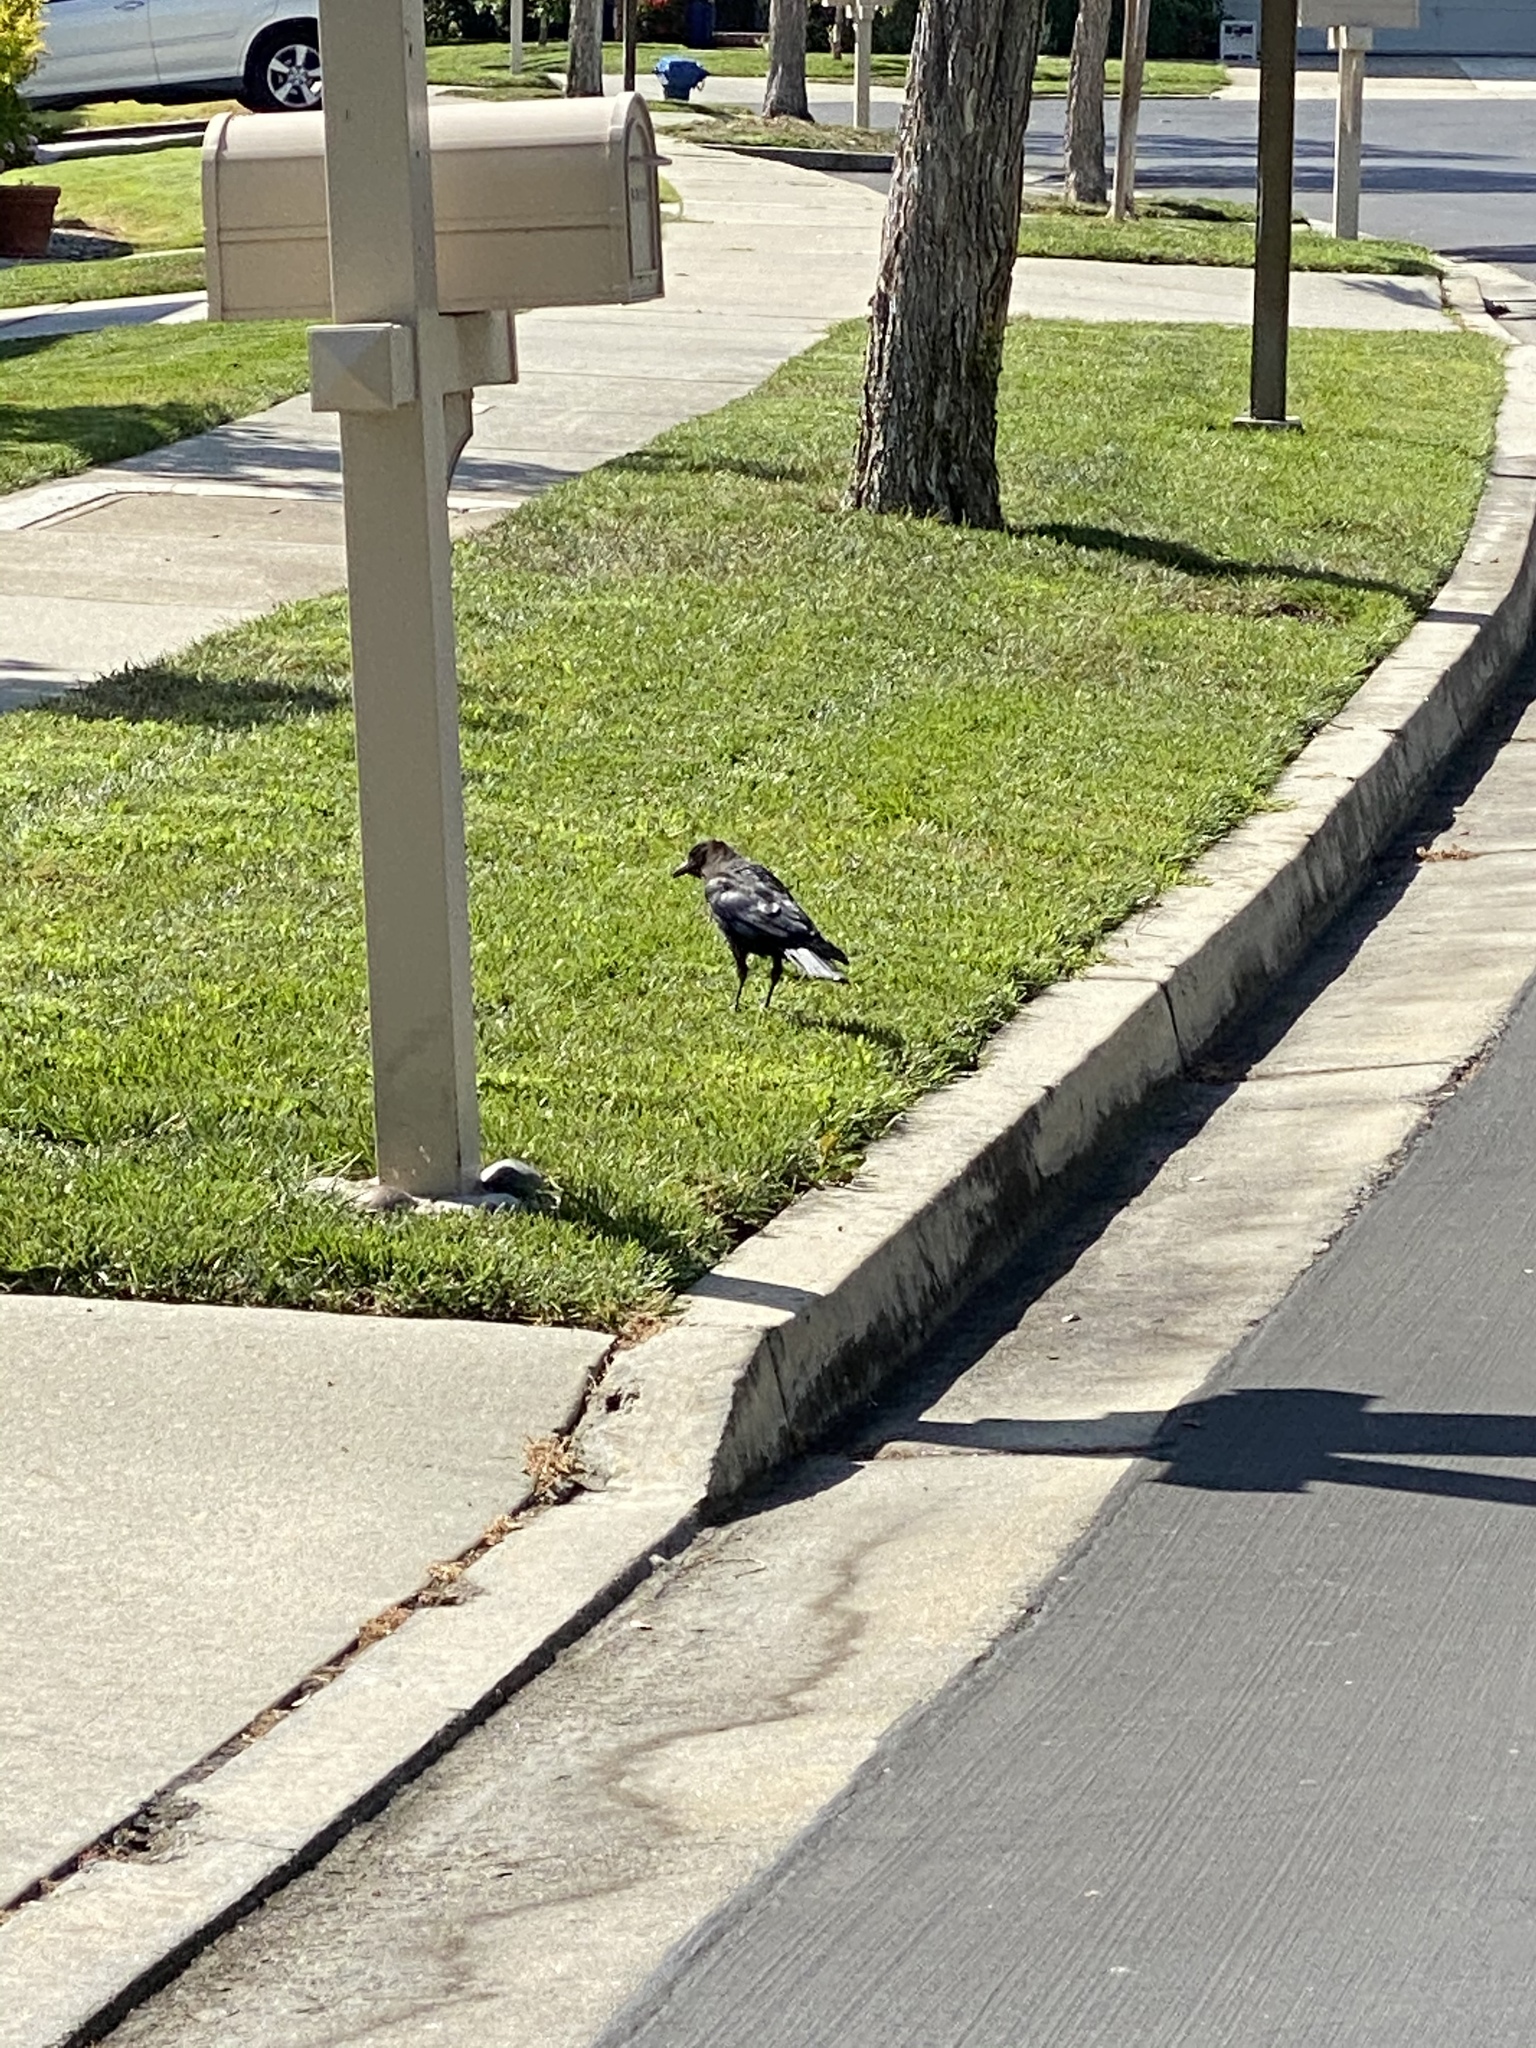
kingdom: Animalia
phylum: Chordata
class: Aves
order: Passeriformes
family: Corvidae
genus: Corvus
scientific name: Corvus brachyrhynchos
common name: American crow
